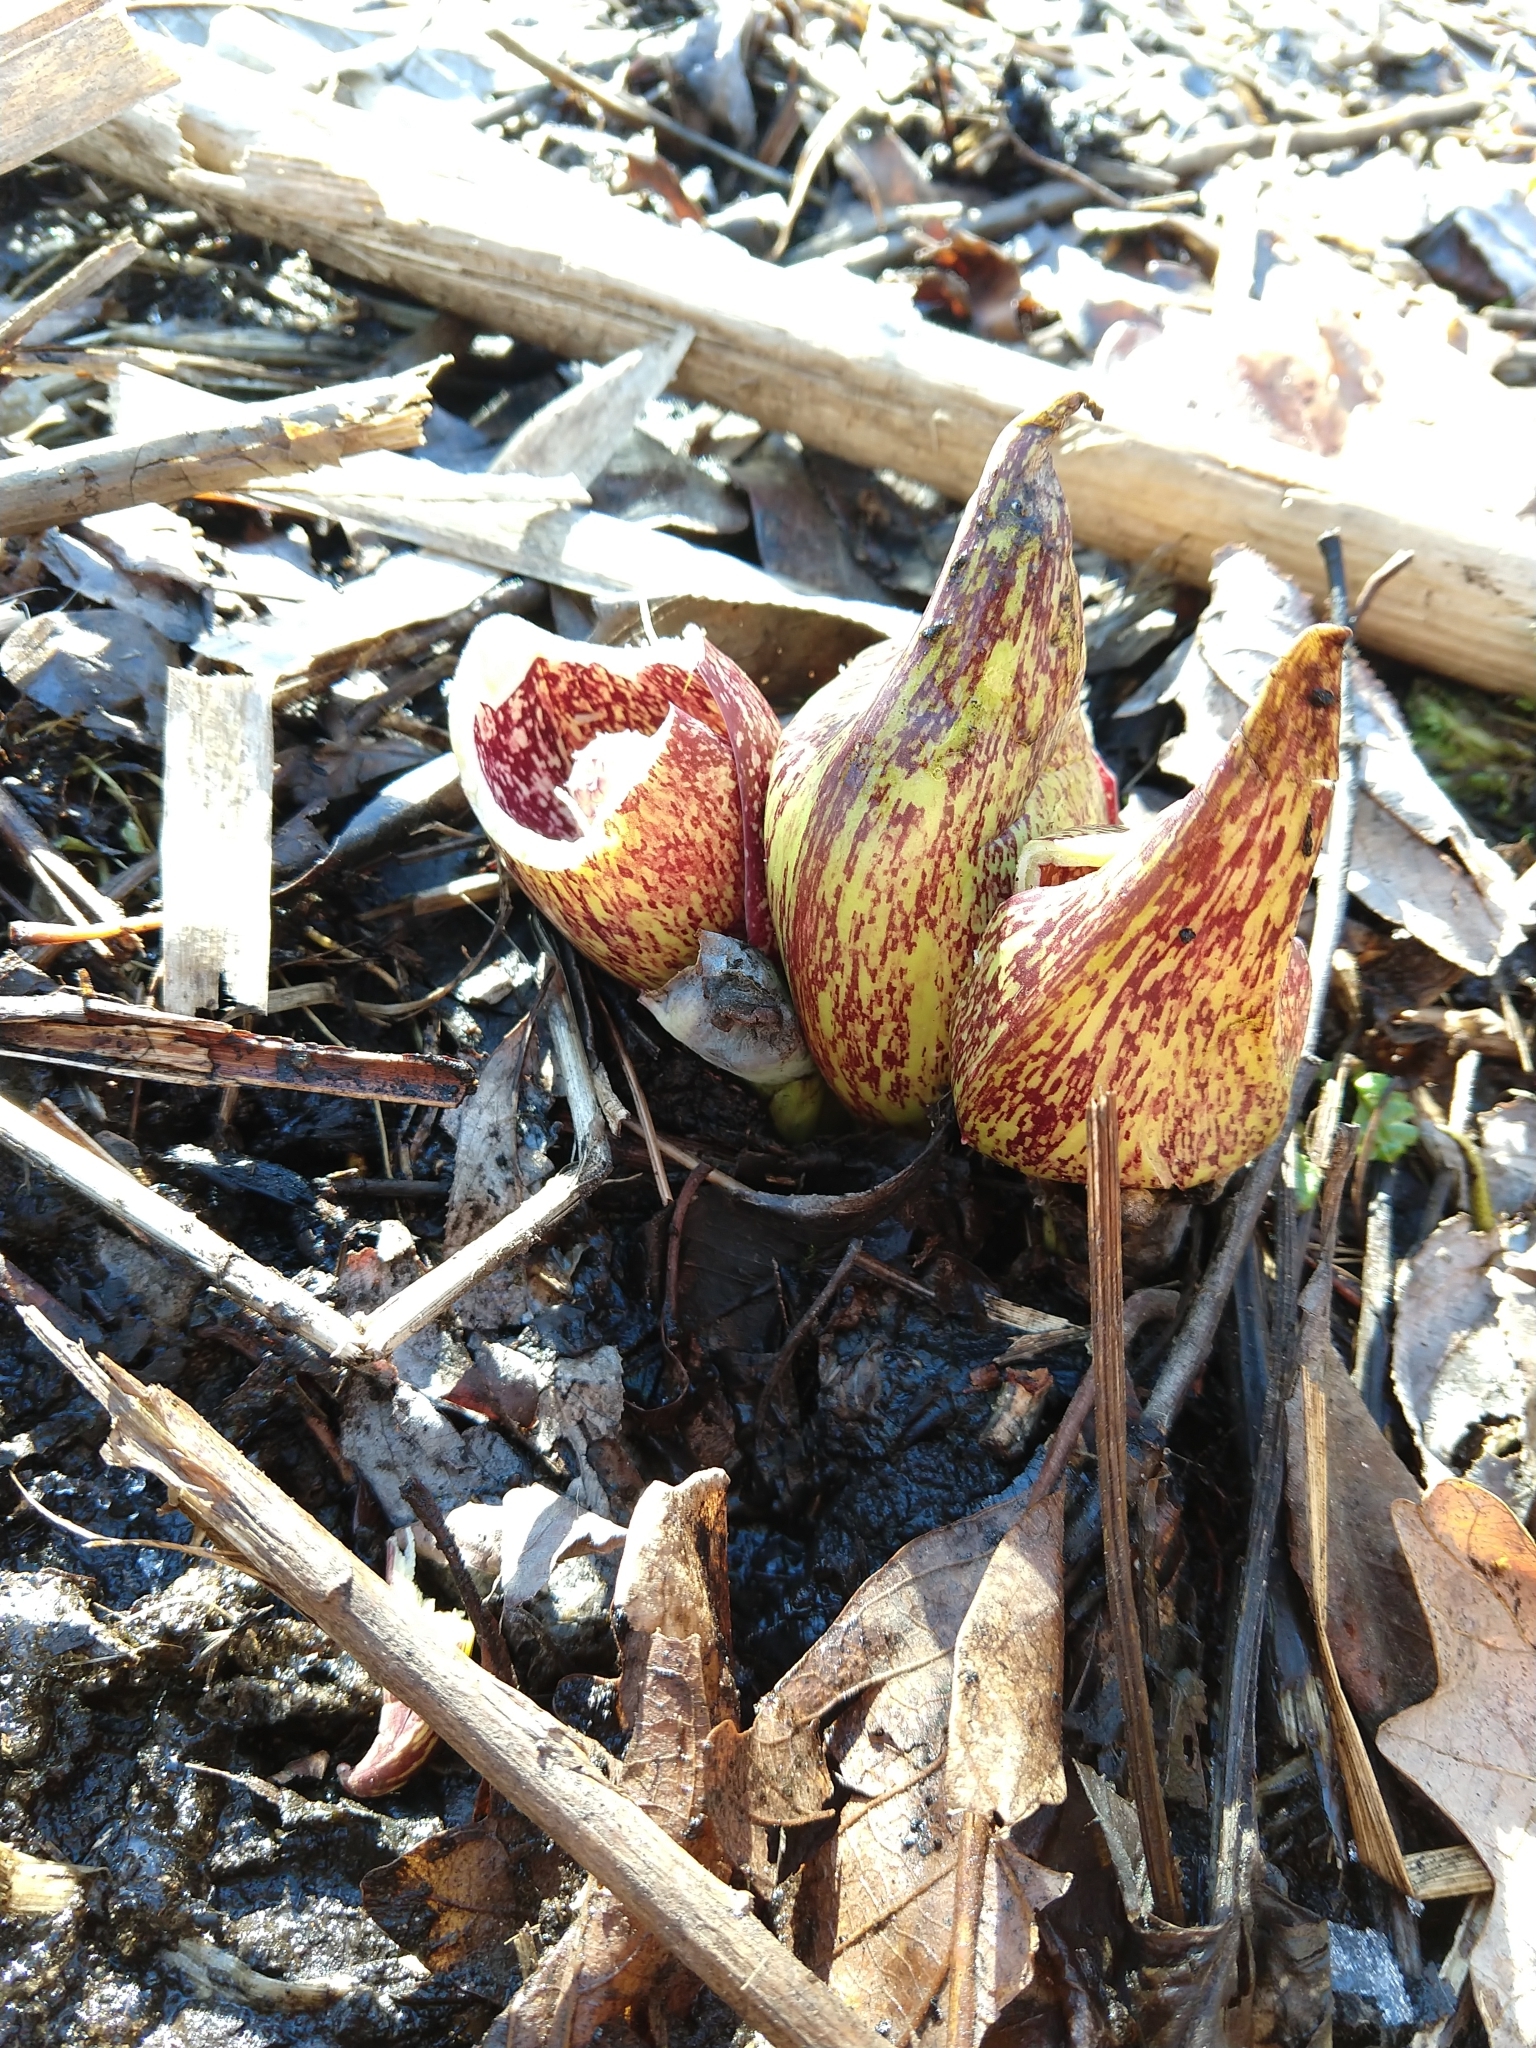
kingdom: Plantae
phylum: Tracheophyta
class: Liliopsida
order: Alismatales
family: Araceae
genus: Symplocarpus
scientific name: Symplocarpus foetidus
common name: Eastern skunk cabbage
